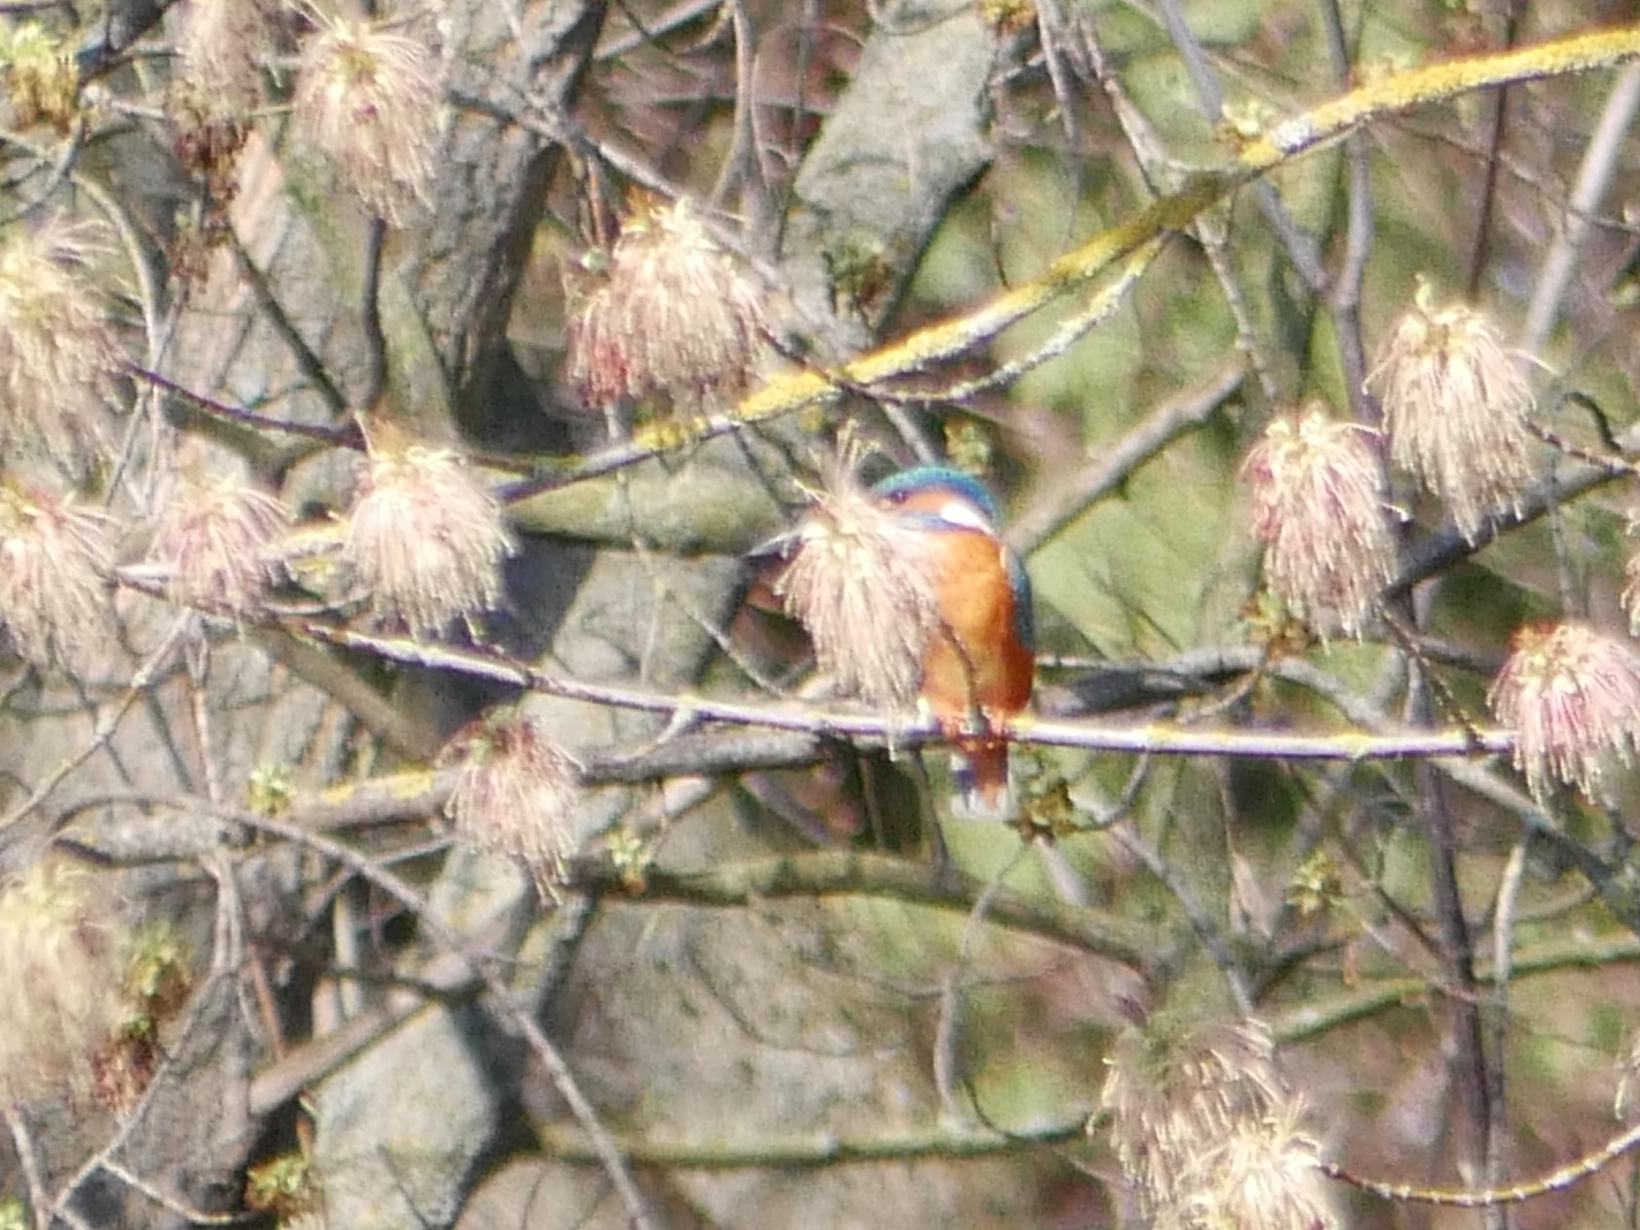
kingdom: Animalia
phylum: Chordata
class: Aves
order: Coraciiformes
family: Alcedinidae
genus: Alcedo
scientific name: Alcedo atthis
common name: Common kingfisher
